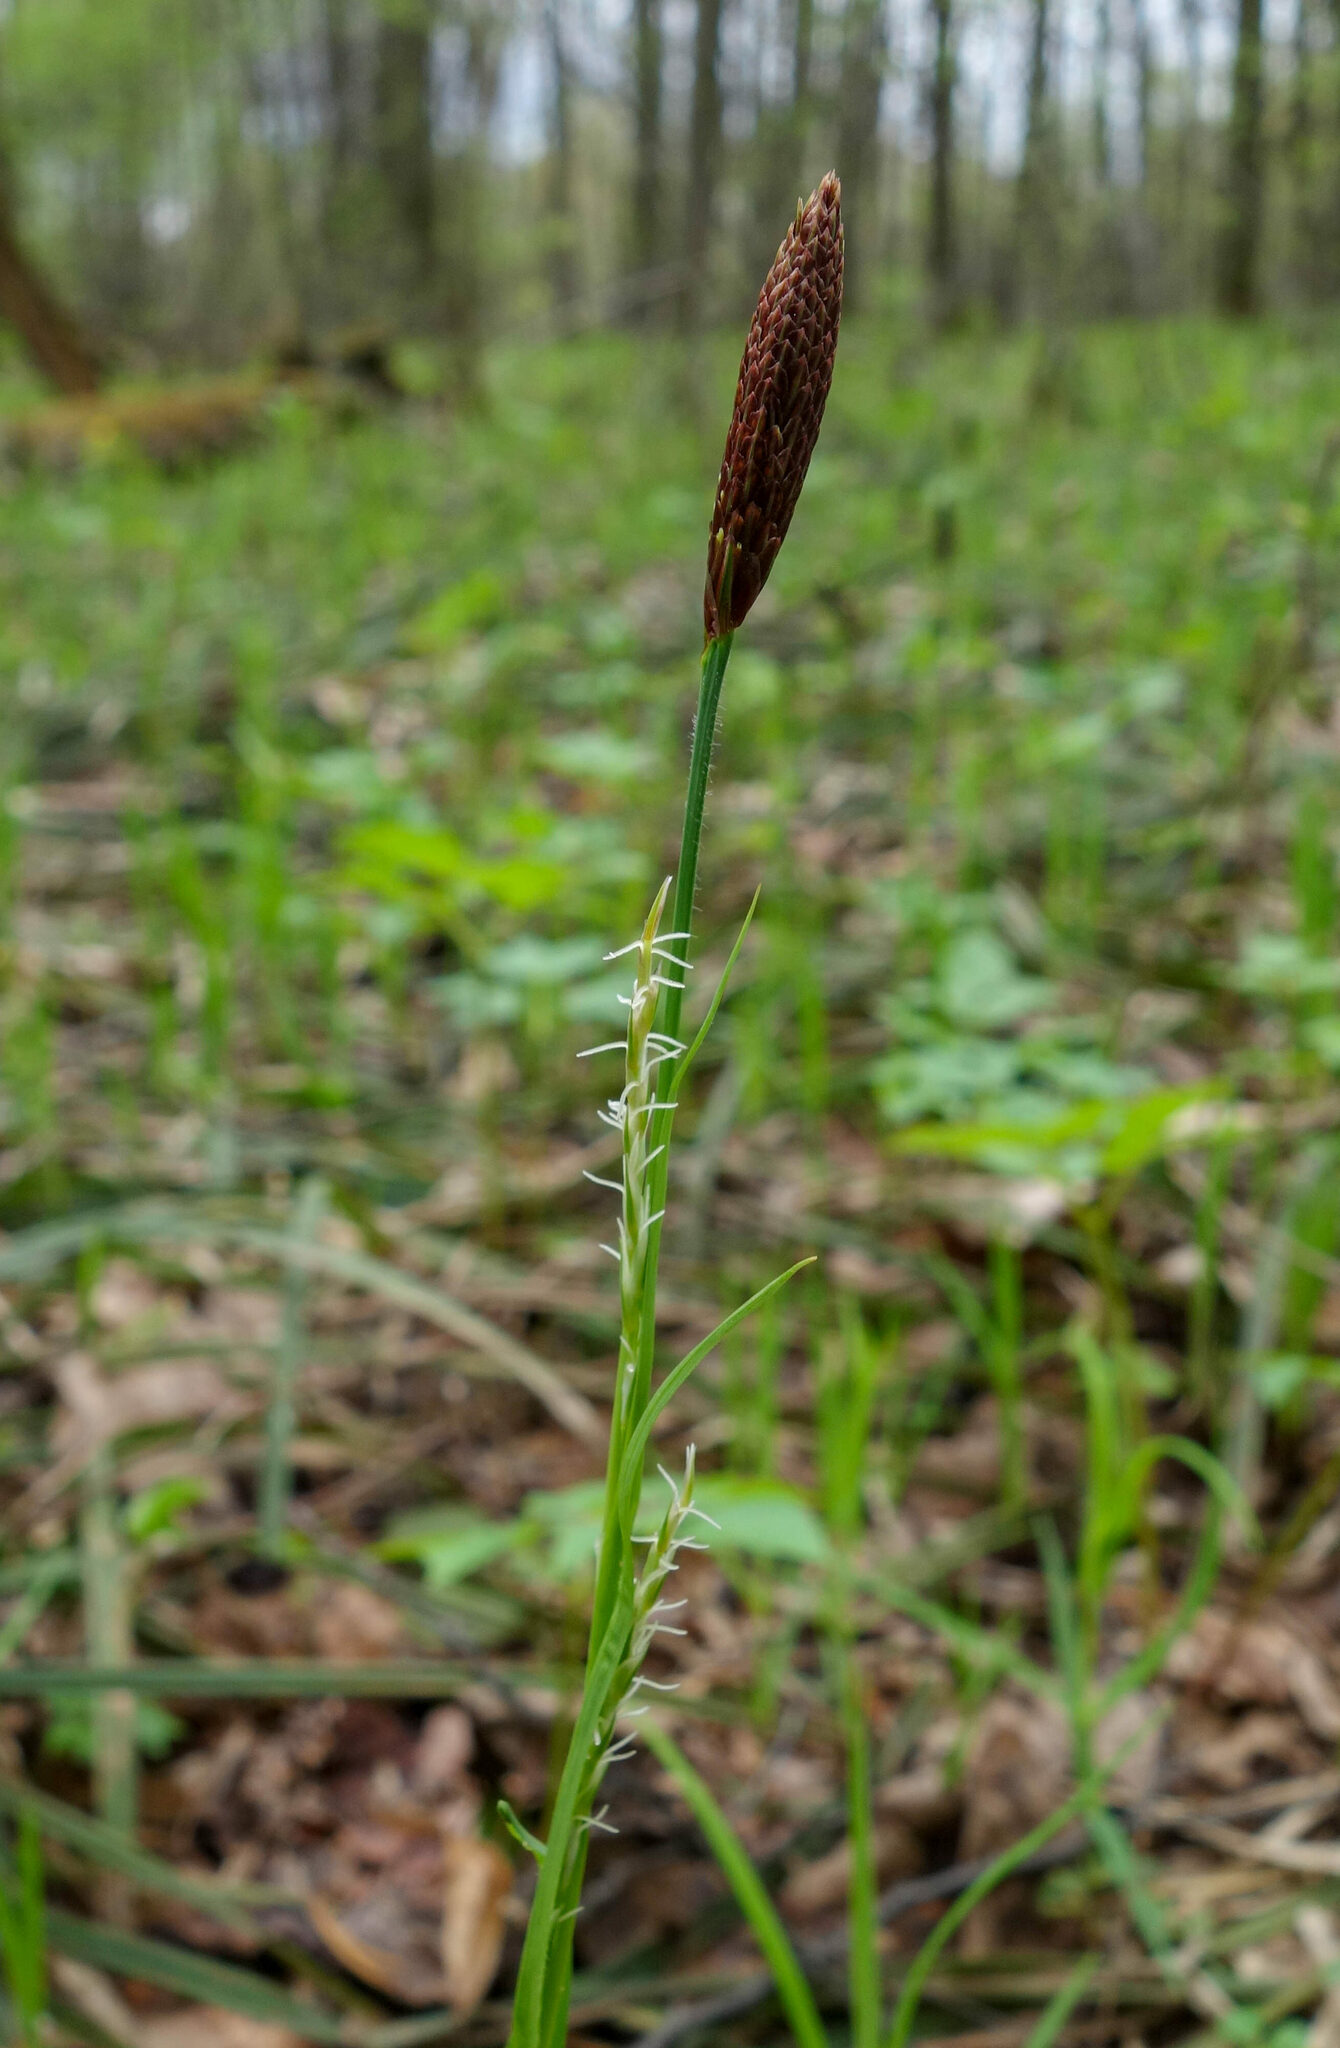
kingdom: Plantae
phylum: Tracheophyta
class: Liliopsida
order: Poales
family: Cyperaceae
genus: Carex
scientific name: Carex pilosa
